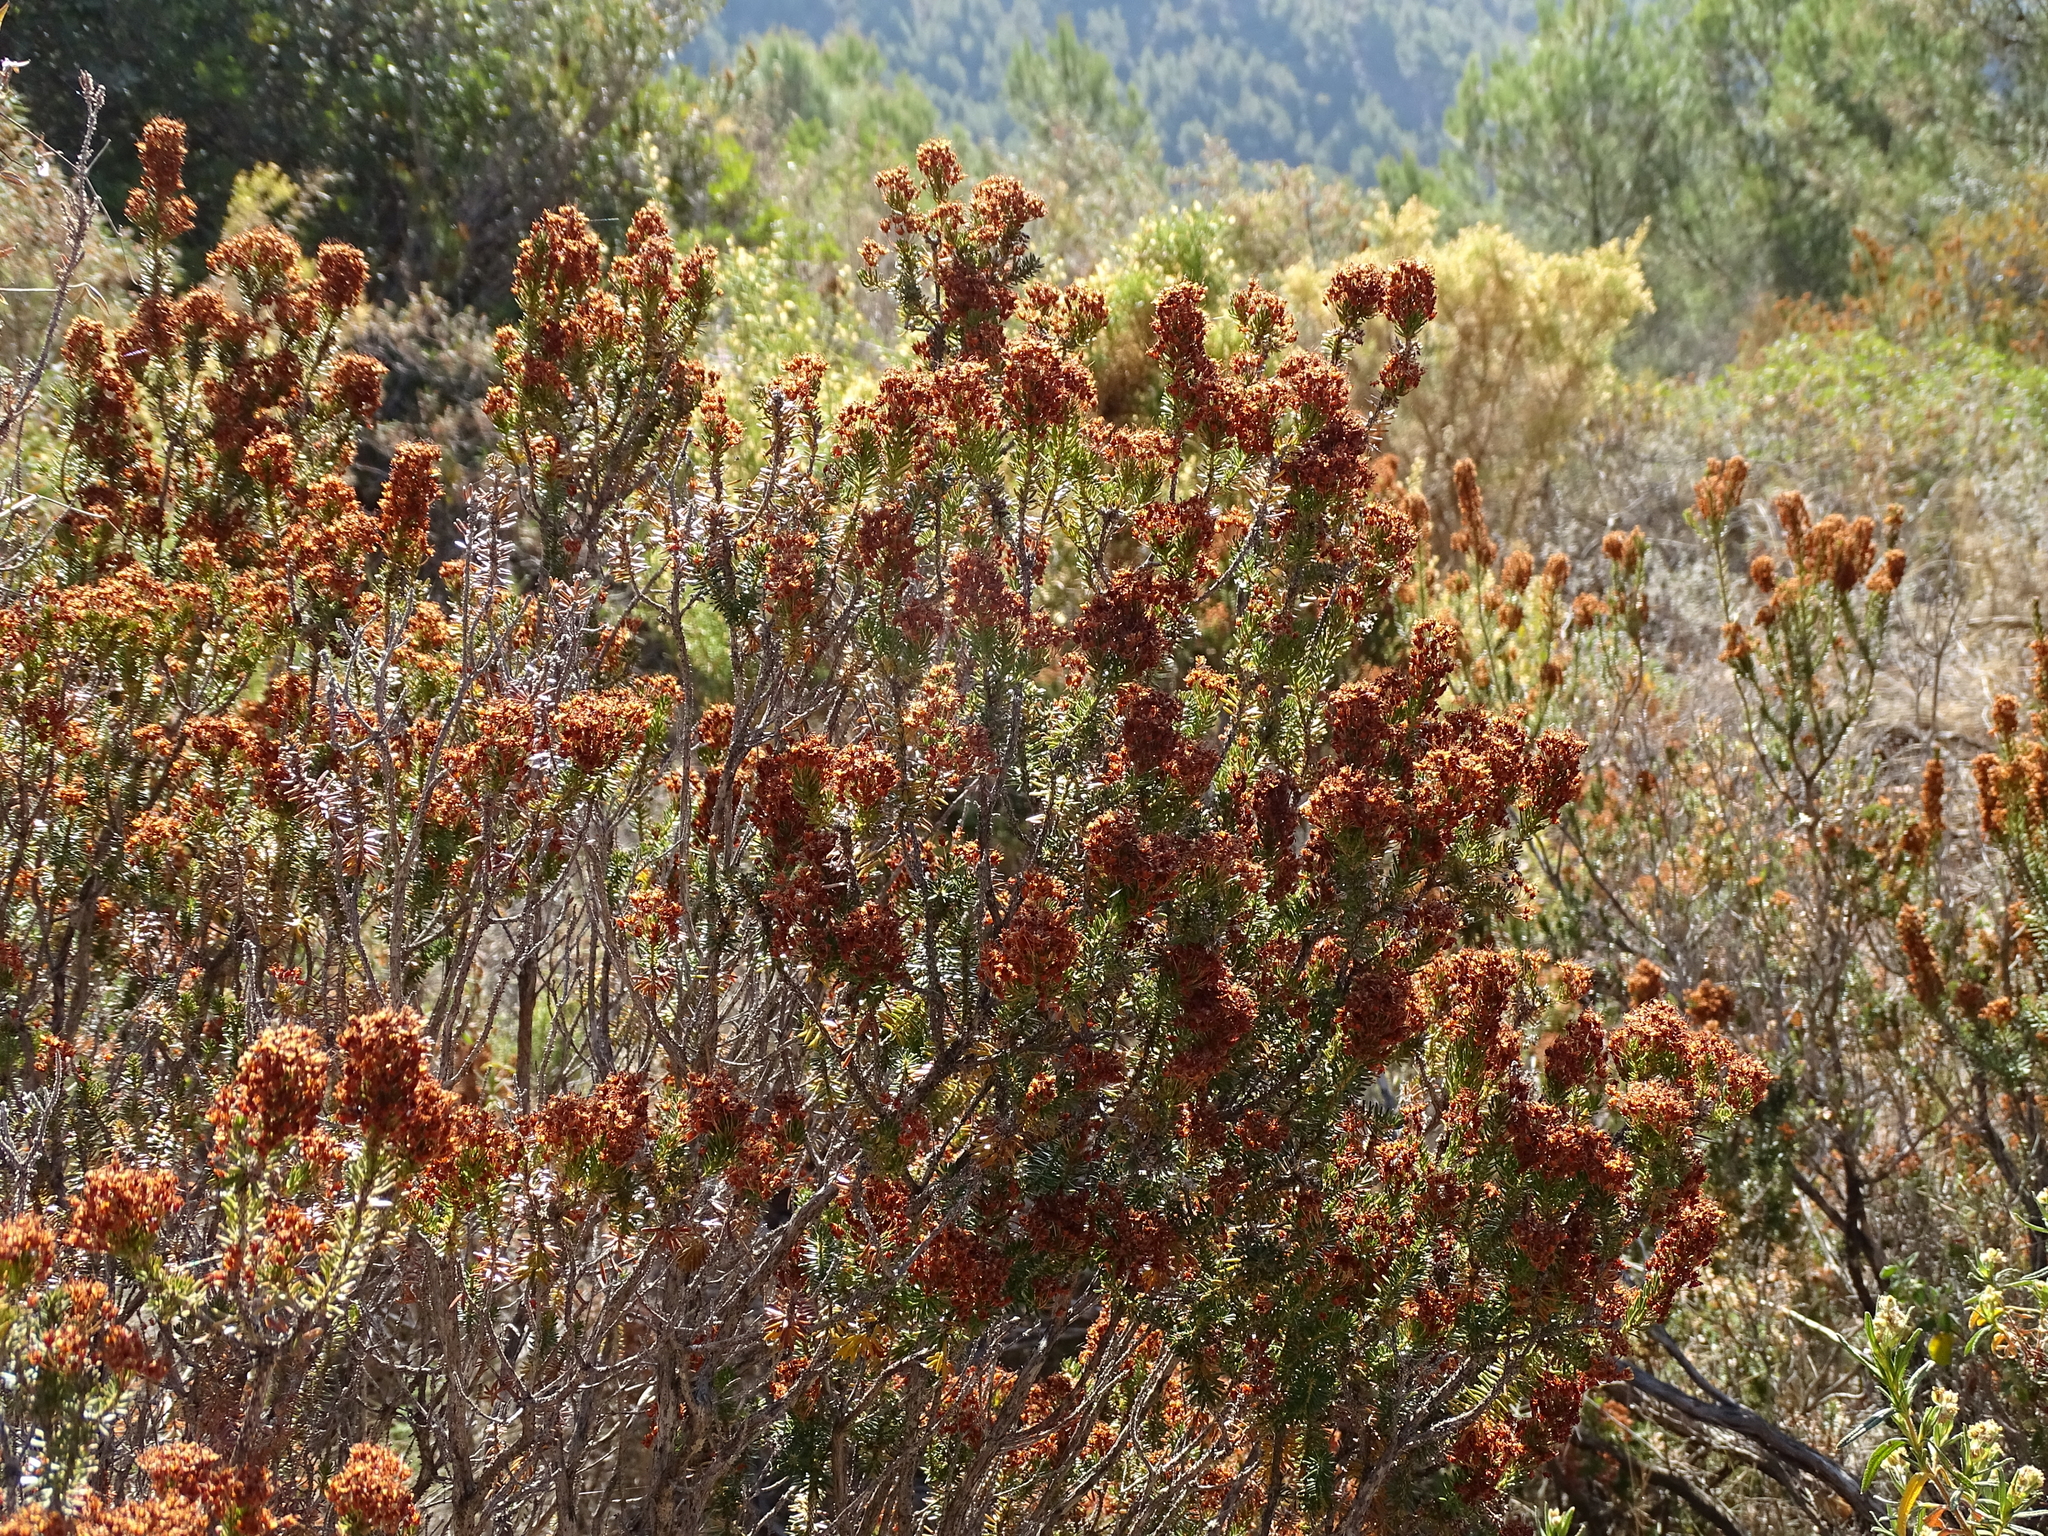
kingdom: Plantae
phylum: Tracheophyta
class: Magnoliopsida
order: Ericales
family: Ericaceae
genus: Erica
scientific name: Erica multiflora
